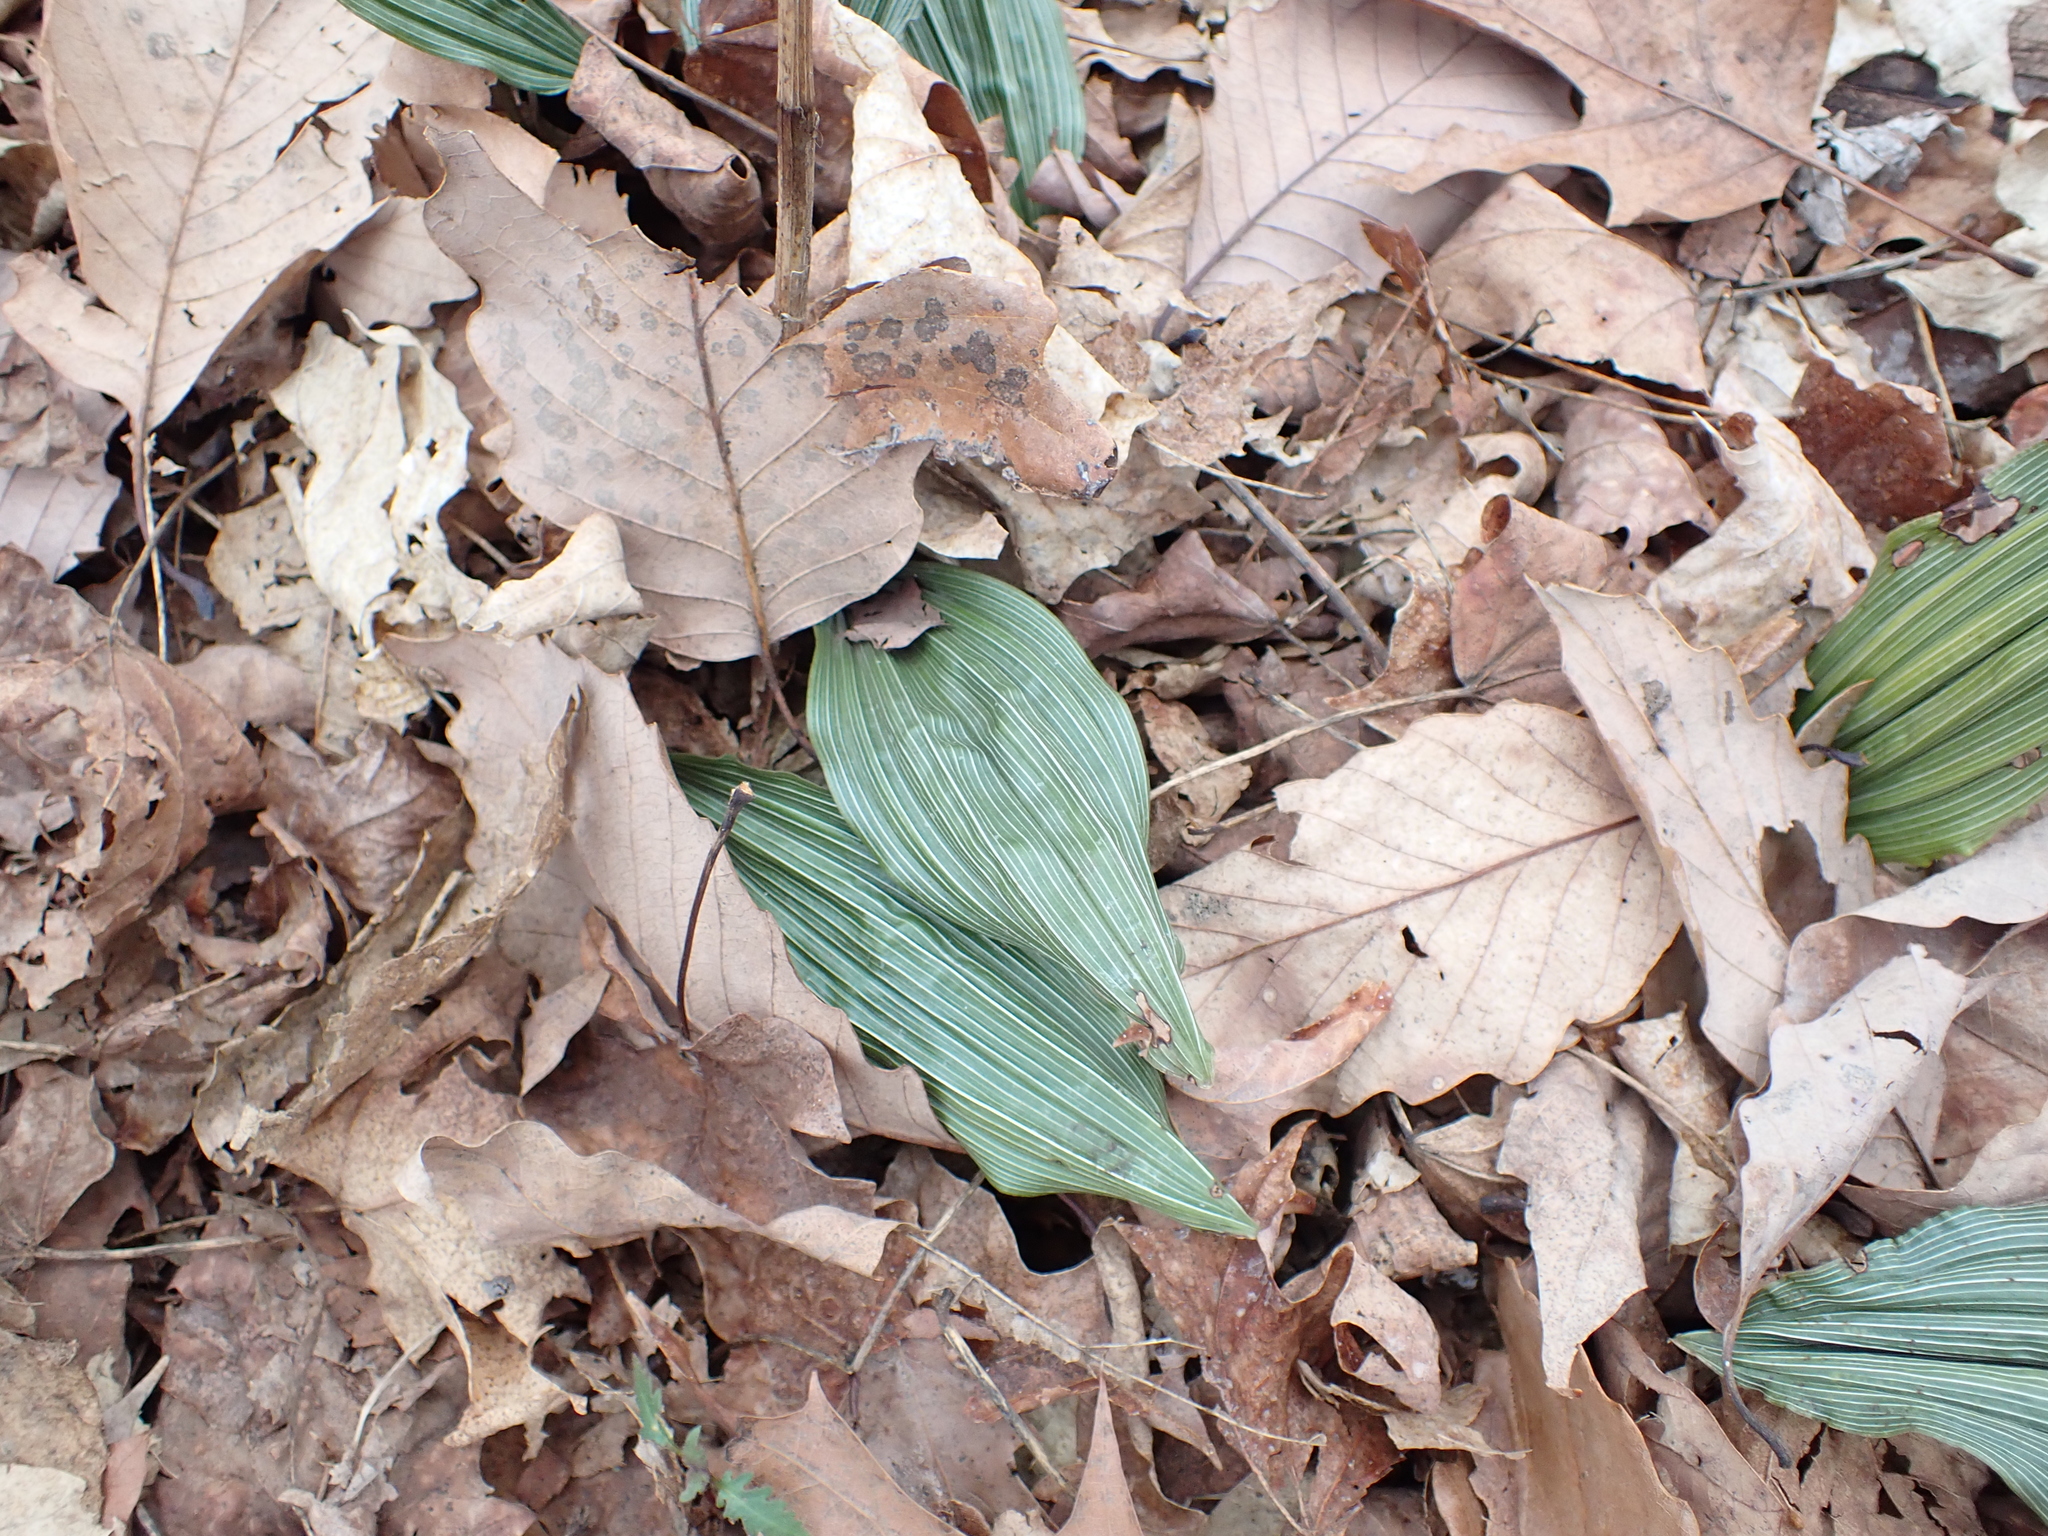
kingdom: Plantae
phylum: Tracheophyta
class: Liliopsida
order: Asparagales
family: Orchidaceae
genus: Aplectrum
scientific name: Aplectrum hyemale
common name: Adam-and-eve
